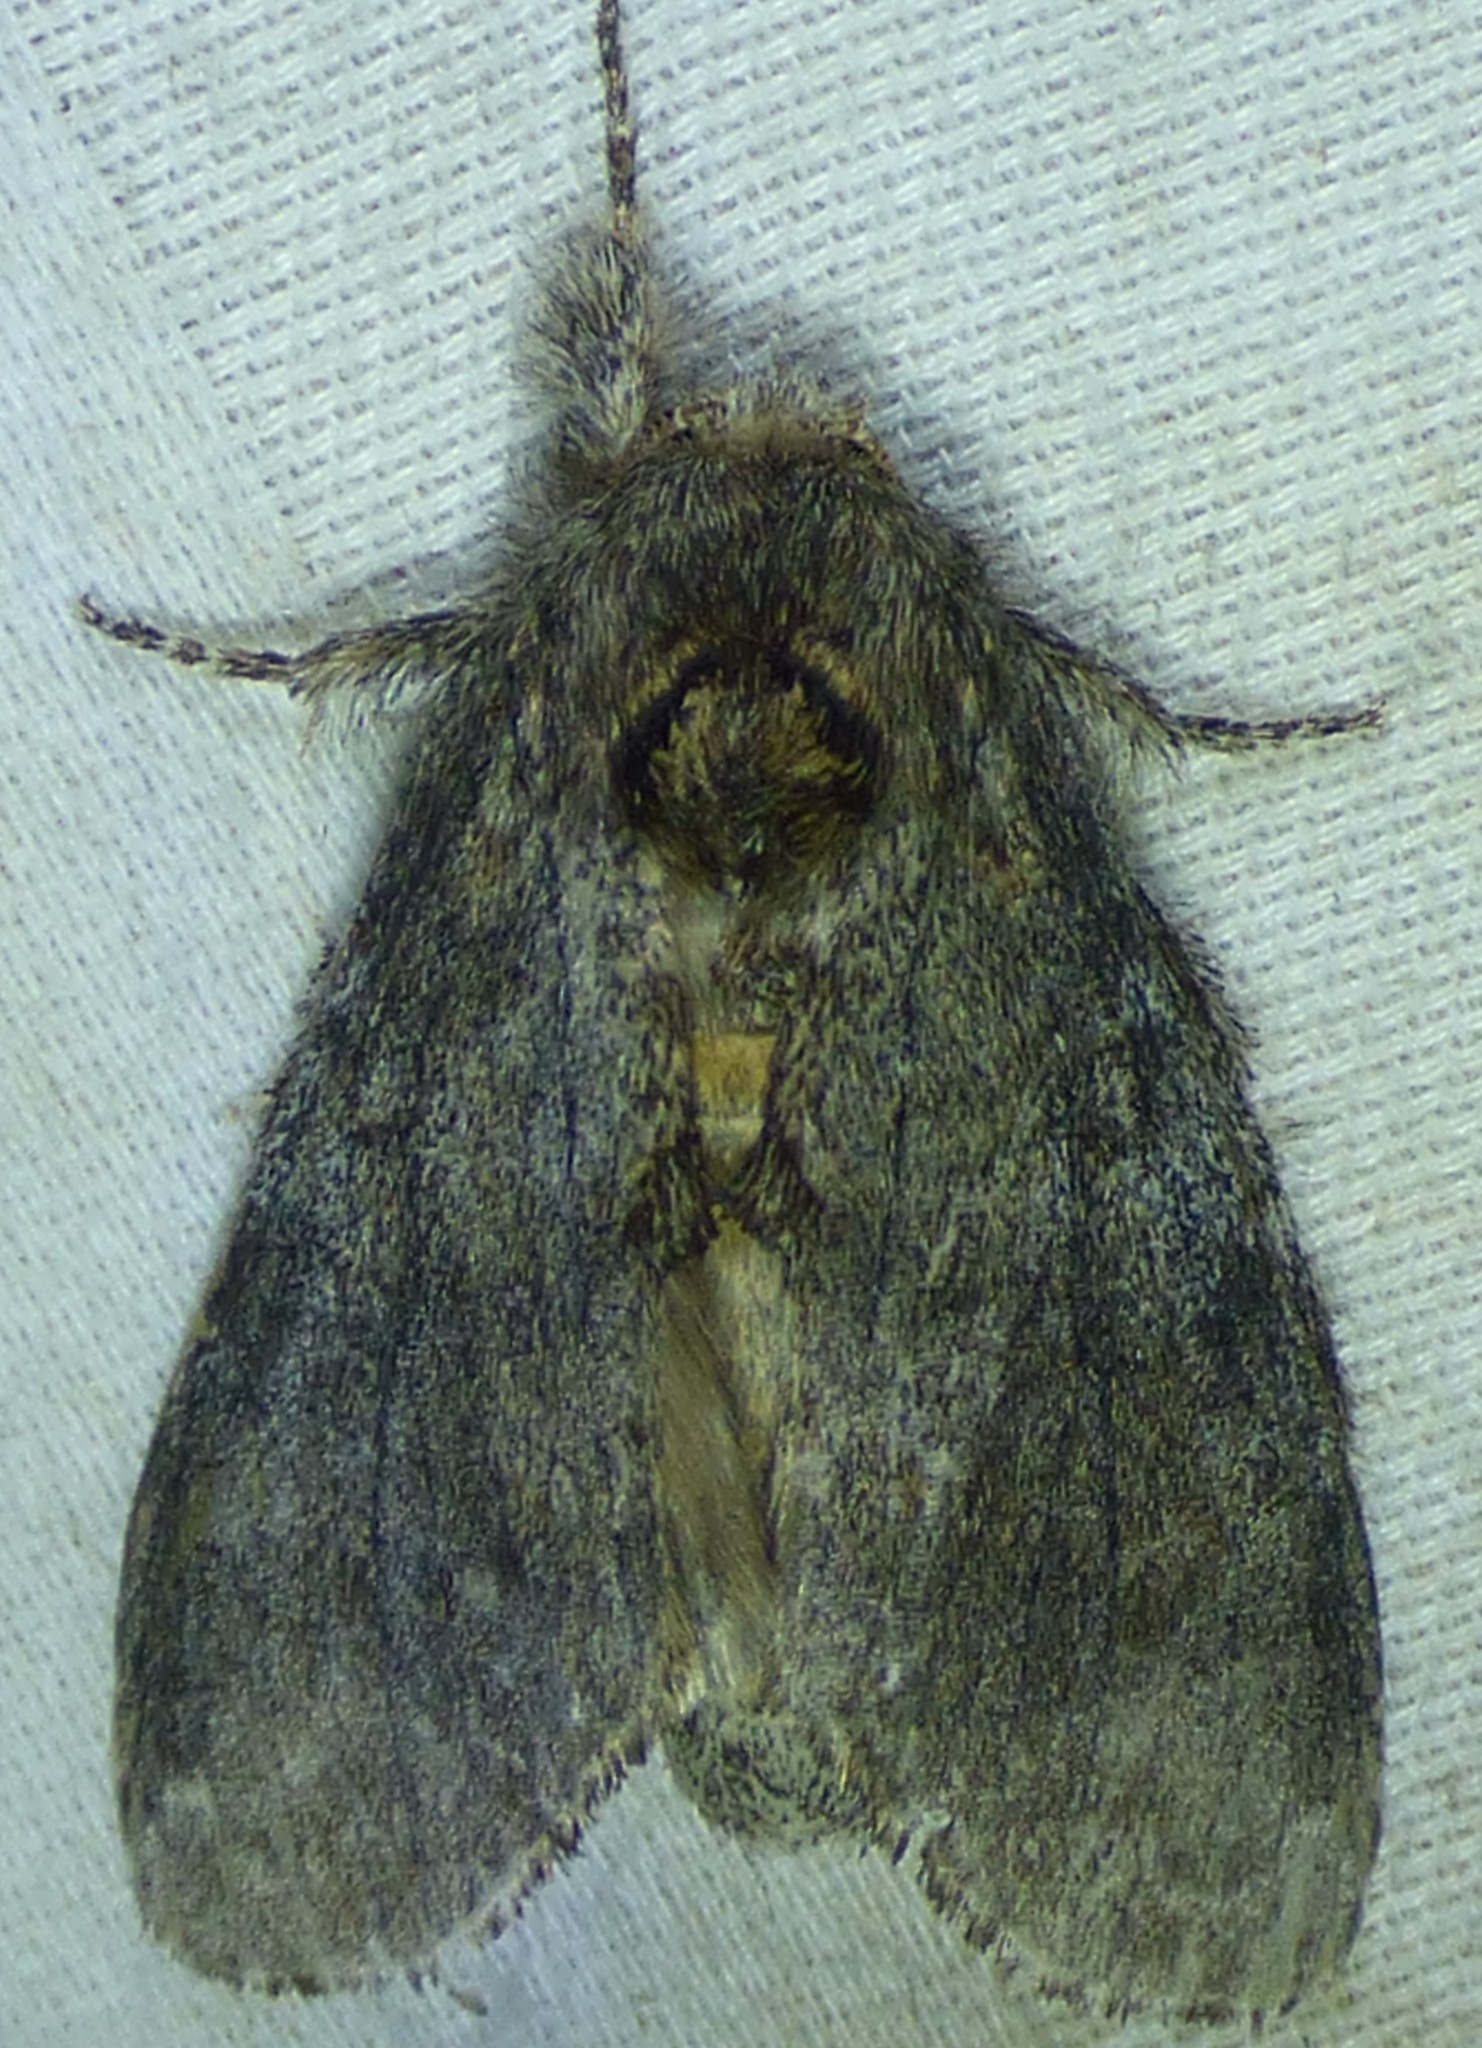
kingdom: Animalia
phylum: Arthropoda
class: Insecta
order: Lepidoptera
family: Notodontidae
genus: Peridea
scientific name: Peridea angulosa
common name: Angulose prominent
